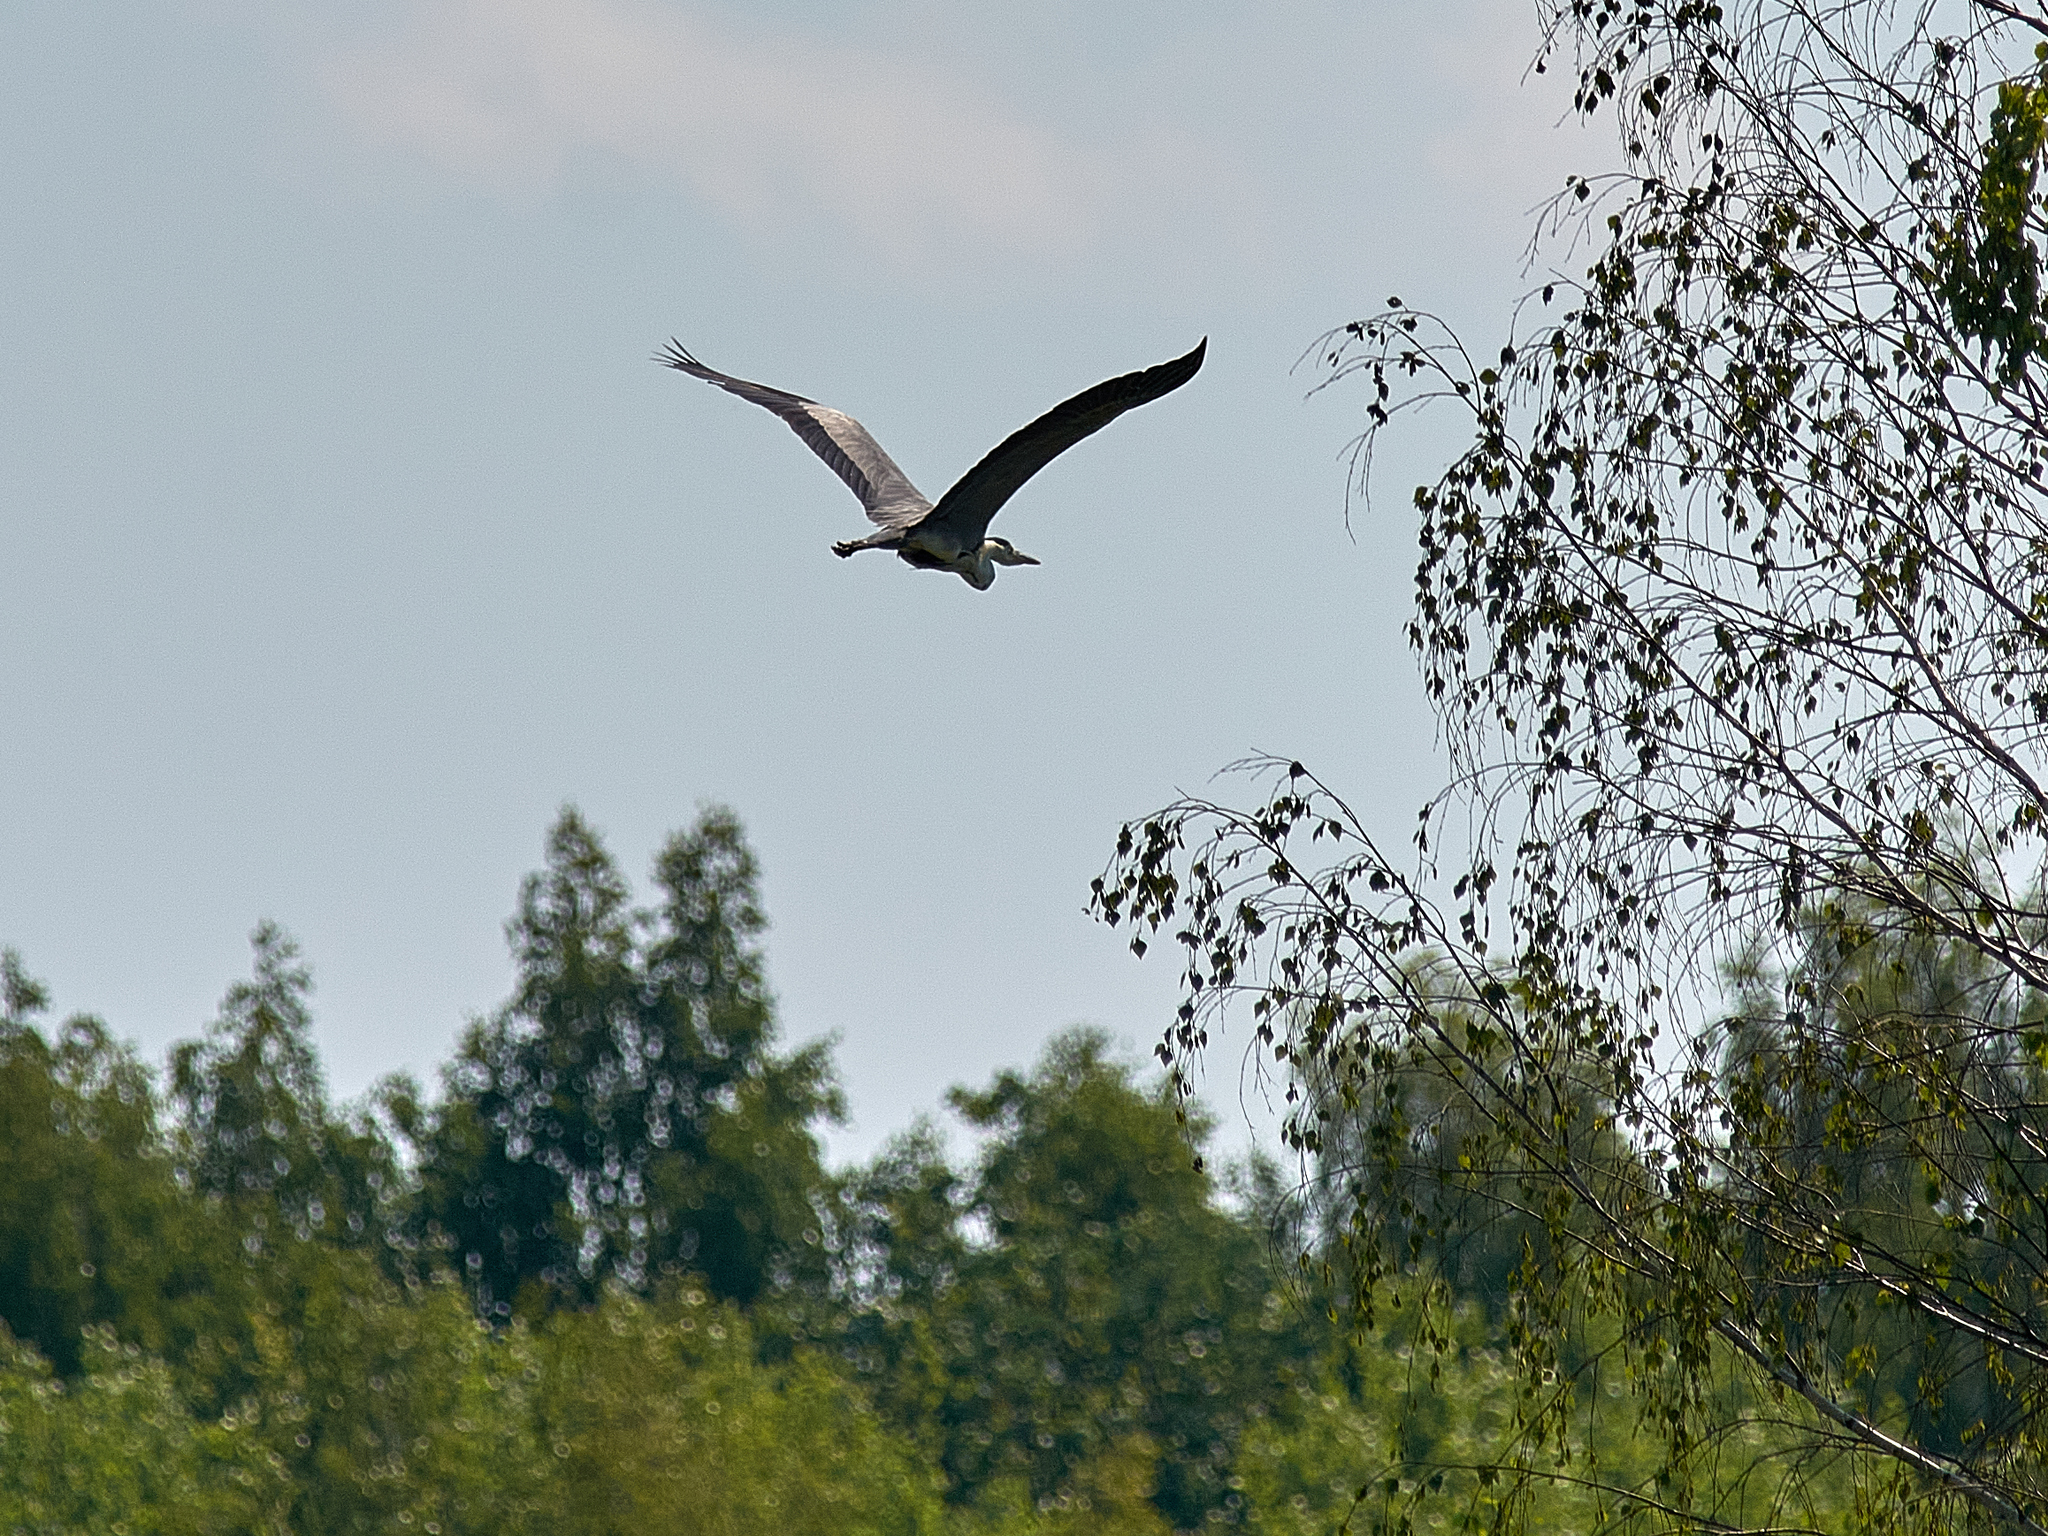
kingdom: Animalia
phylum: Chordata
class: Aves
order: Pelecaniformes
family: Ardeidae
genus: Ardea
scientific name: Ardea cinerea
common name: Grey heron
